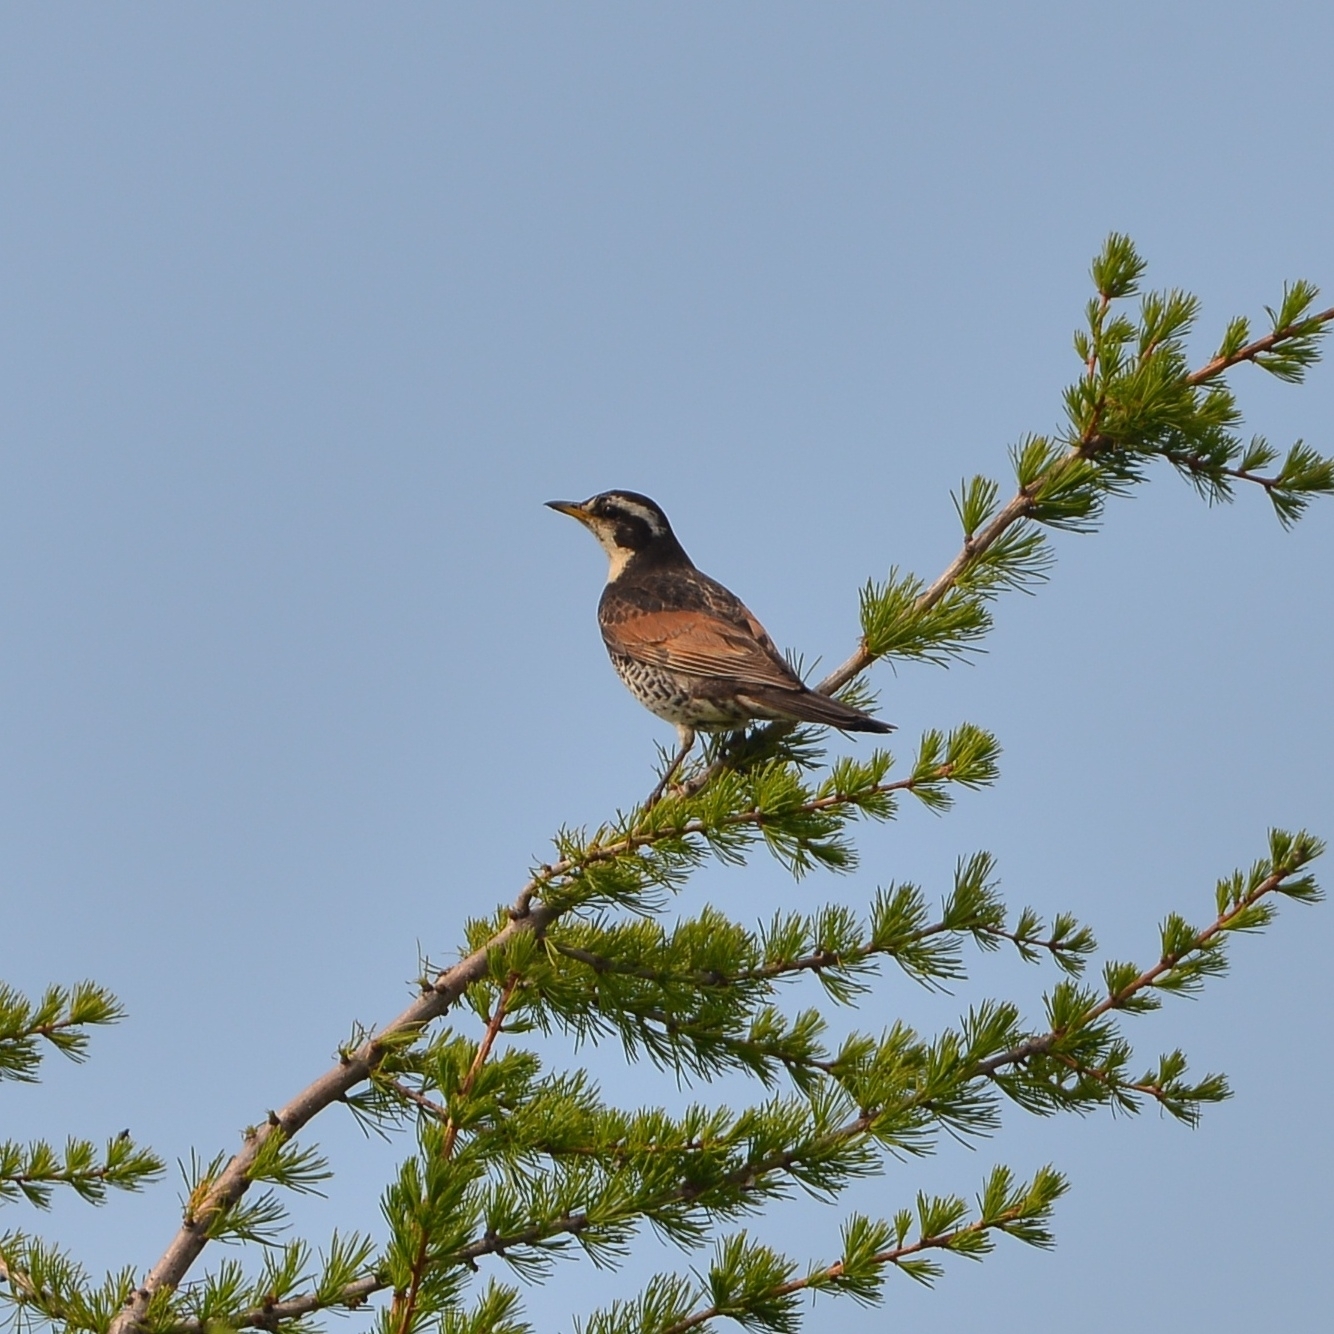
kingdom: Animalia
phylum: Chordata
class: Aves
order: Passeriformes
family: Turdidae
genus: Turdus
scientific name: Turdus eunomus
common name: Dusky thrush
